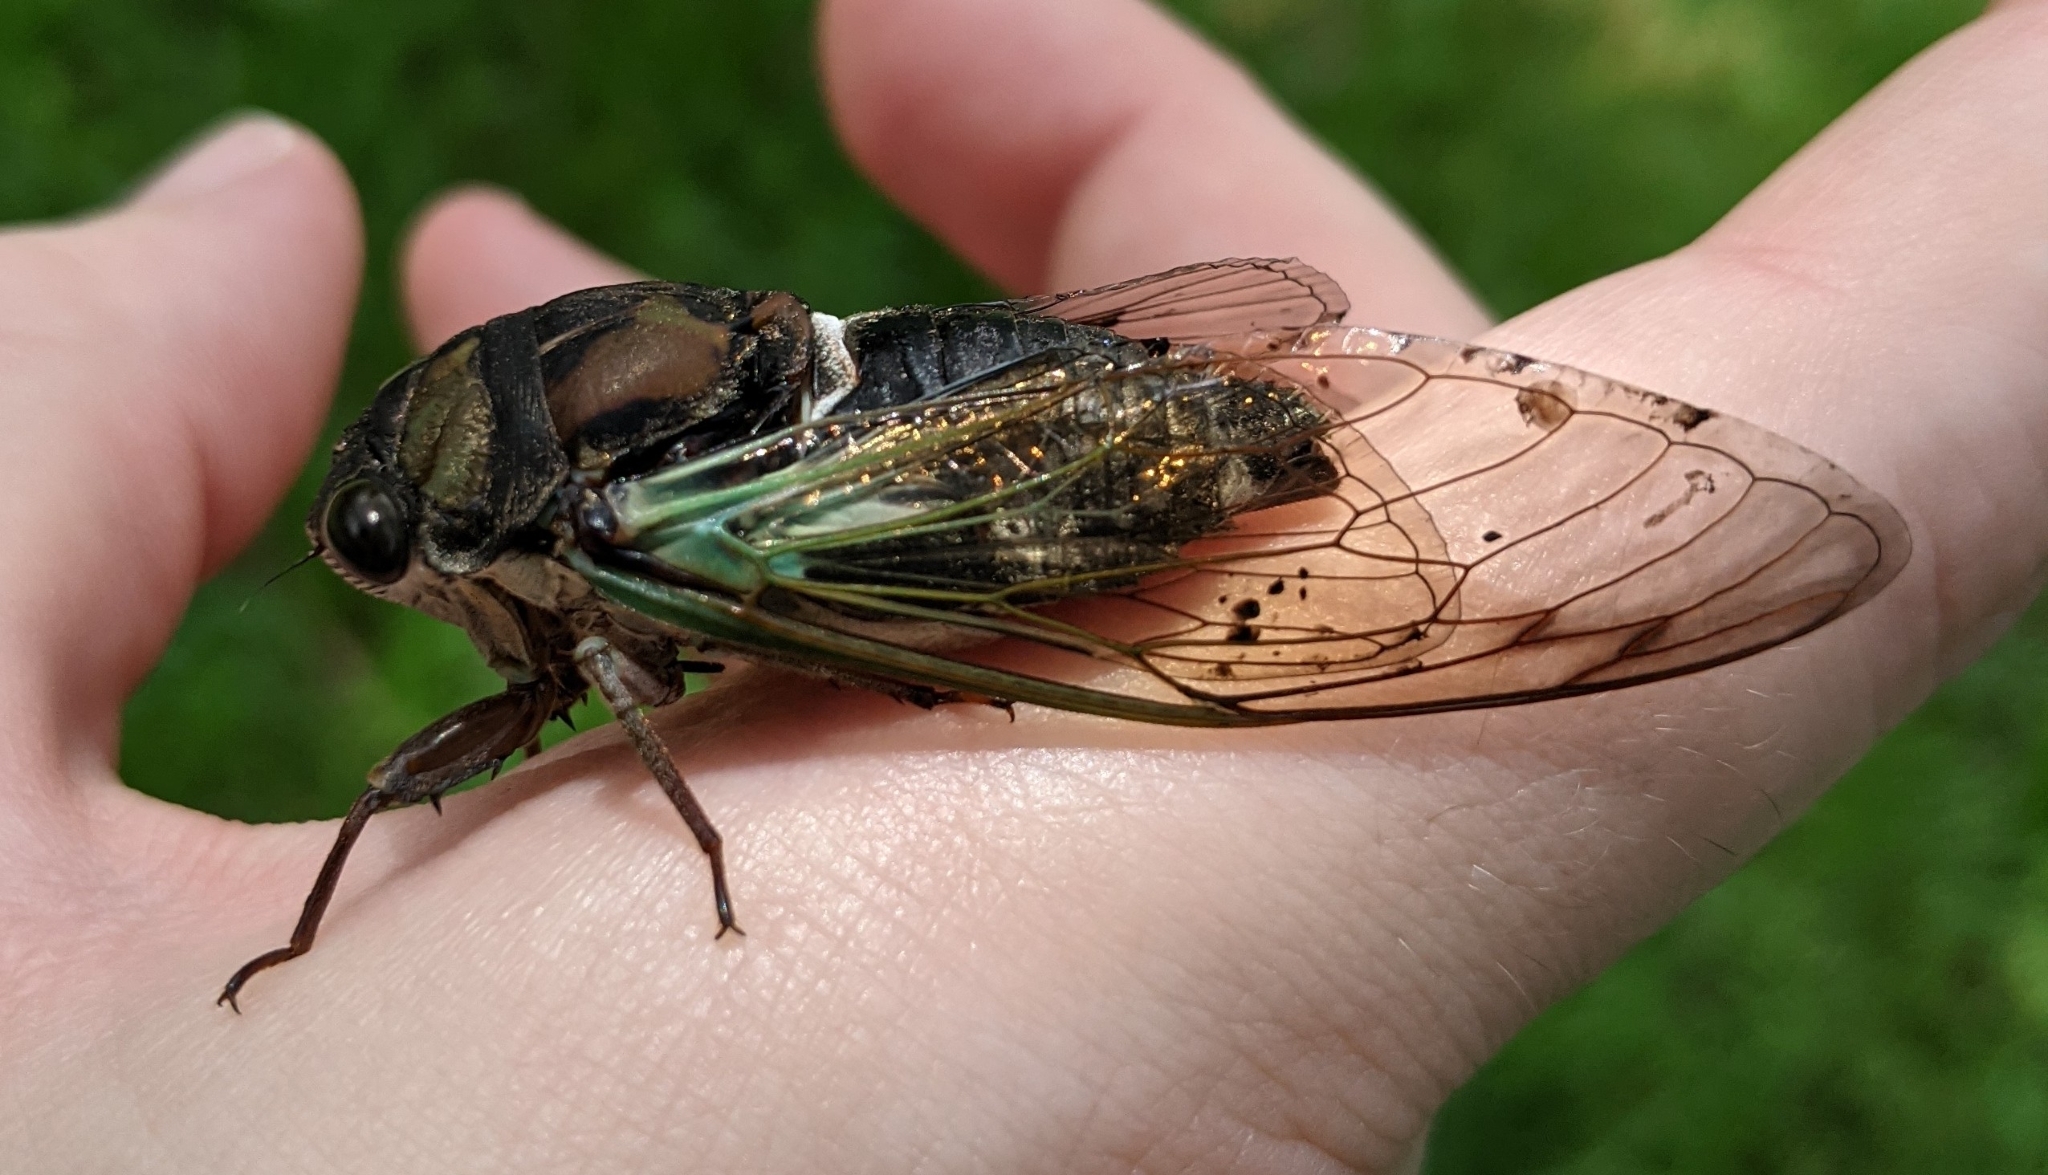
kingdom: Animalia
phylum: Arthropoda
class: Insecta
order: Hemiptera
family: Cicadidae
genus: Neotibicen
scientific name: Neotibicen lyricen
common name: Lyric cicada
